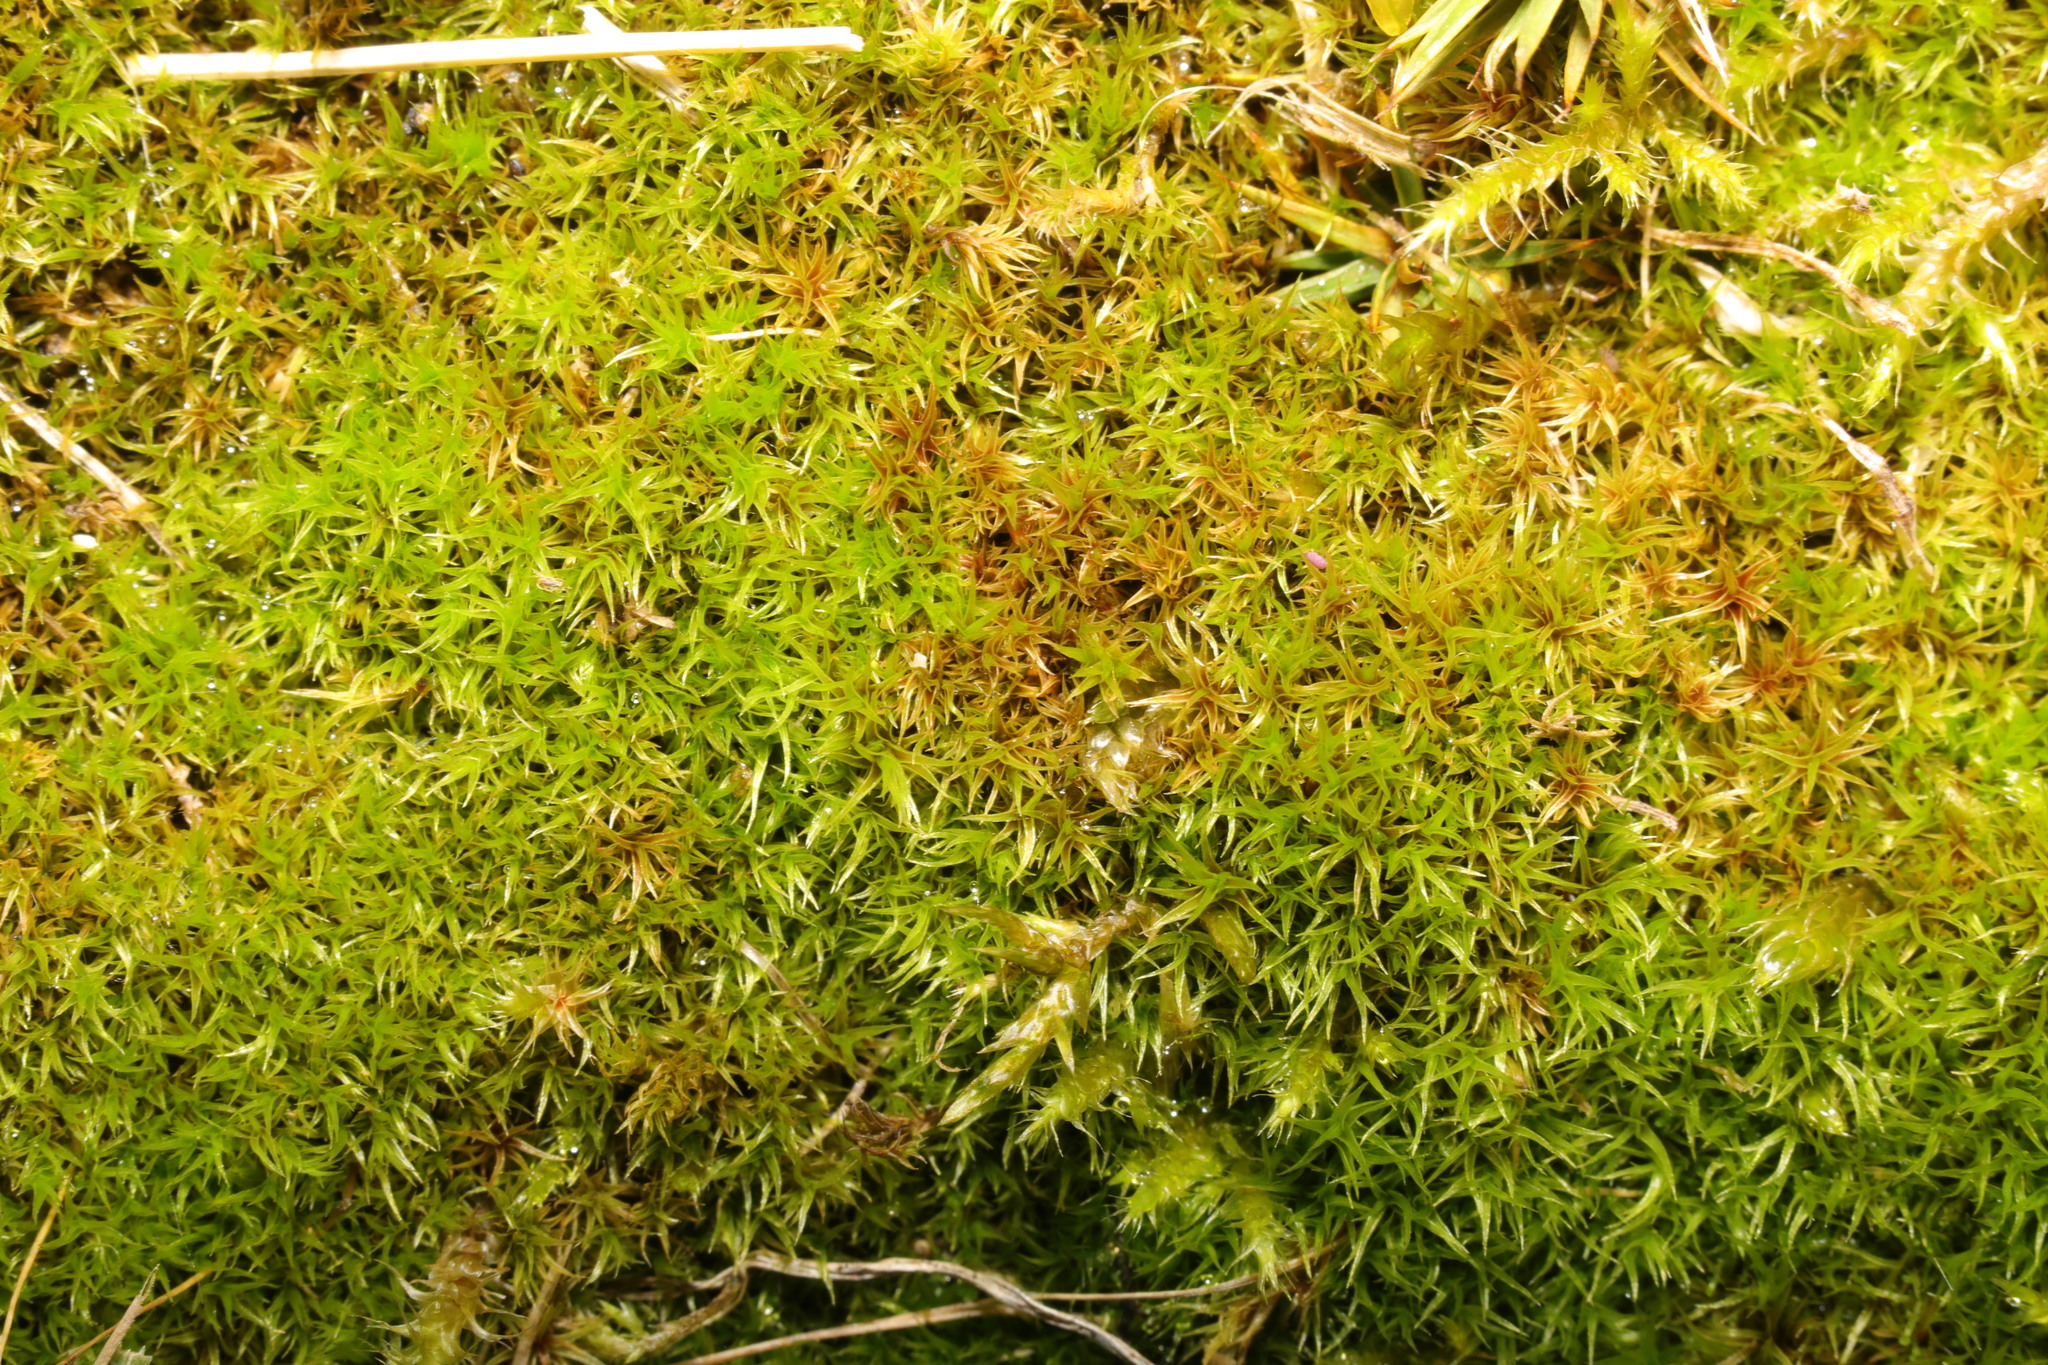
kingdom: Plantae
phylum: Bryophyta
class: Bryopsida
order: Dicranales
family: Ditrichaceae
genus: Ceratodon
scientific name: Ceratodon purpureus
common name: Redshank
